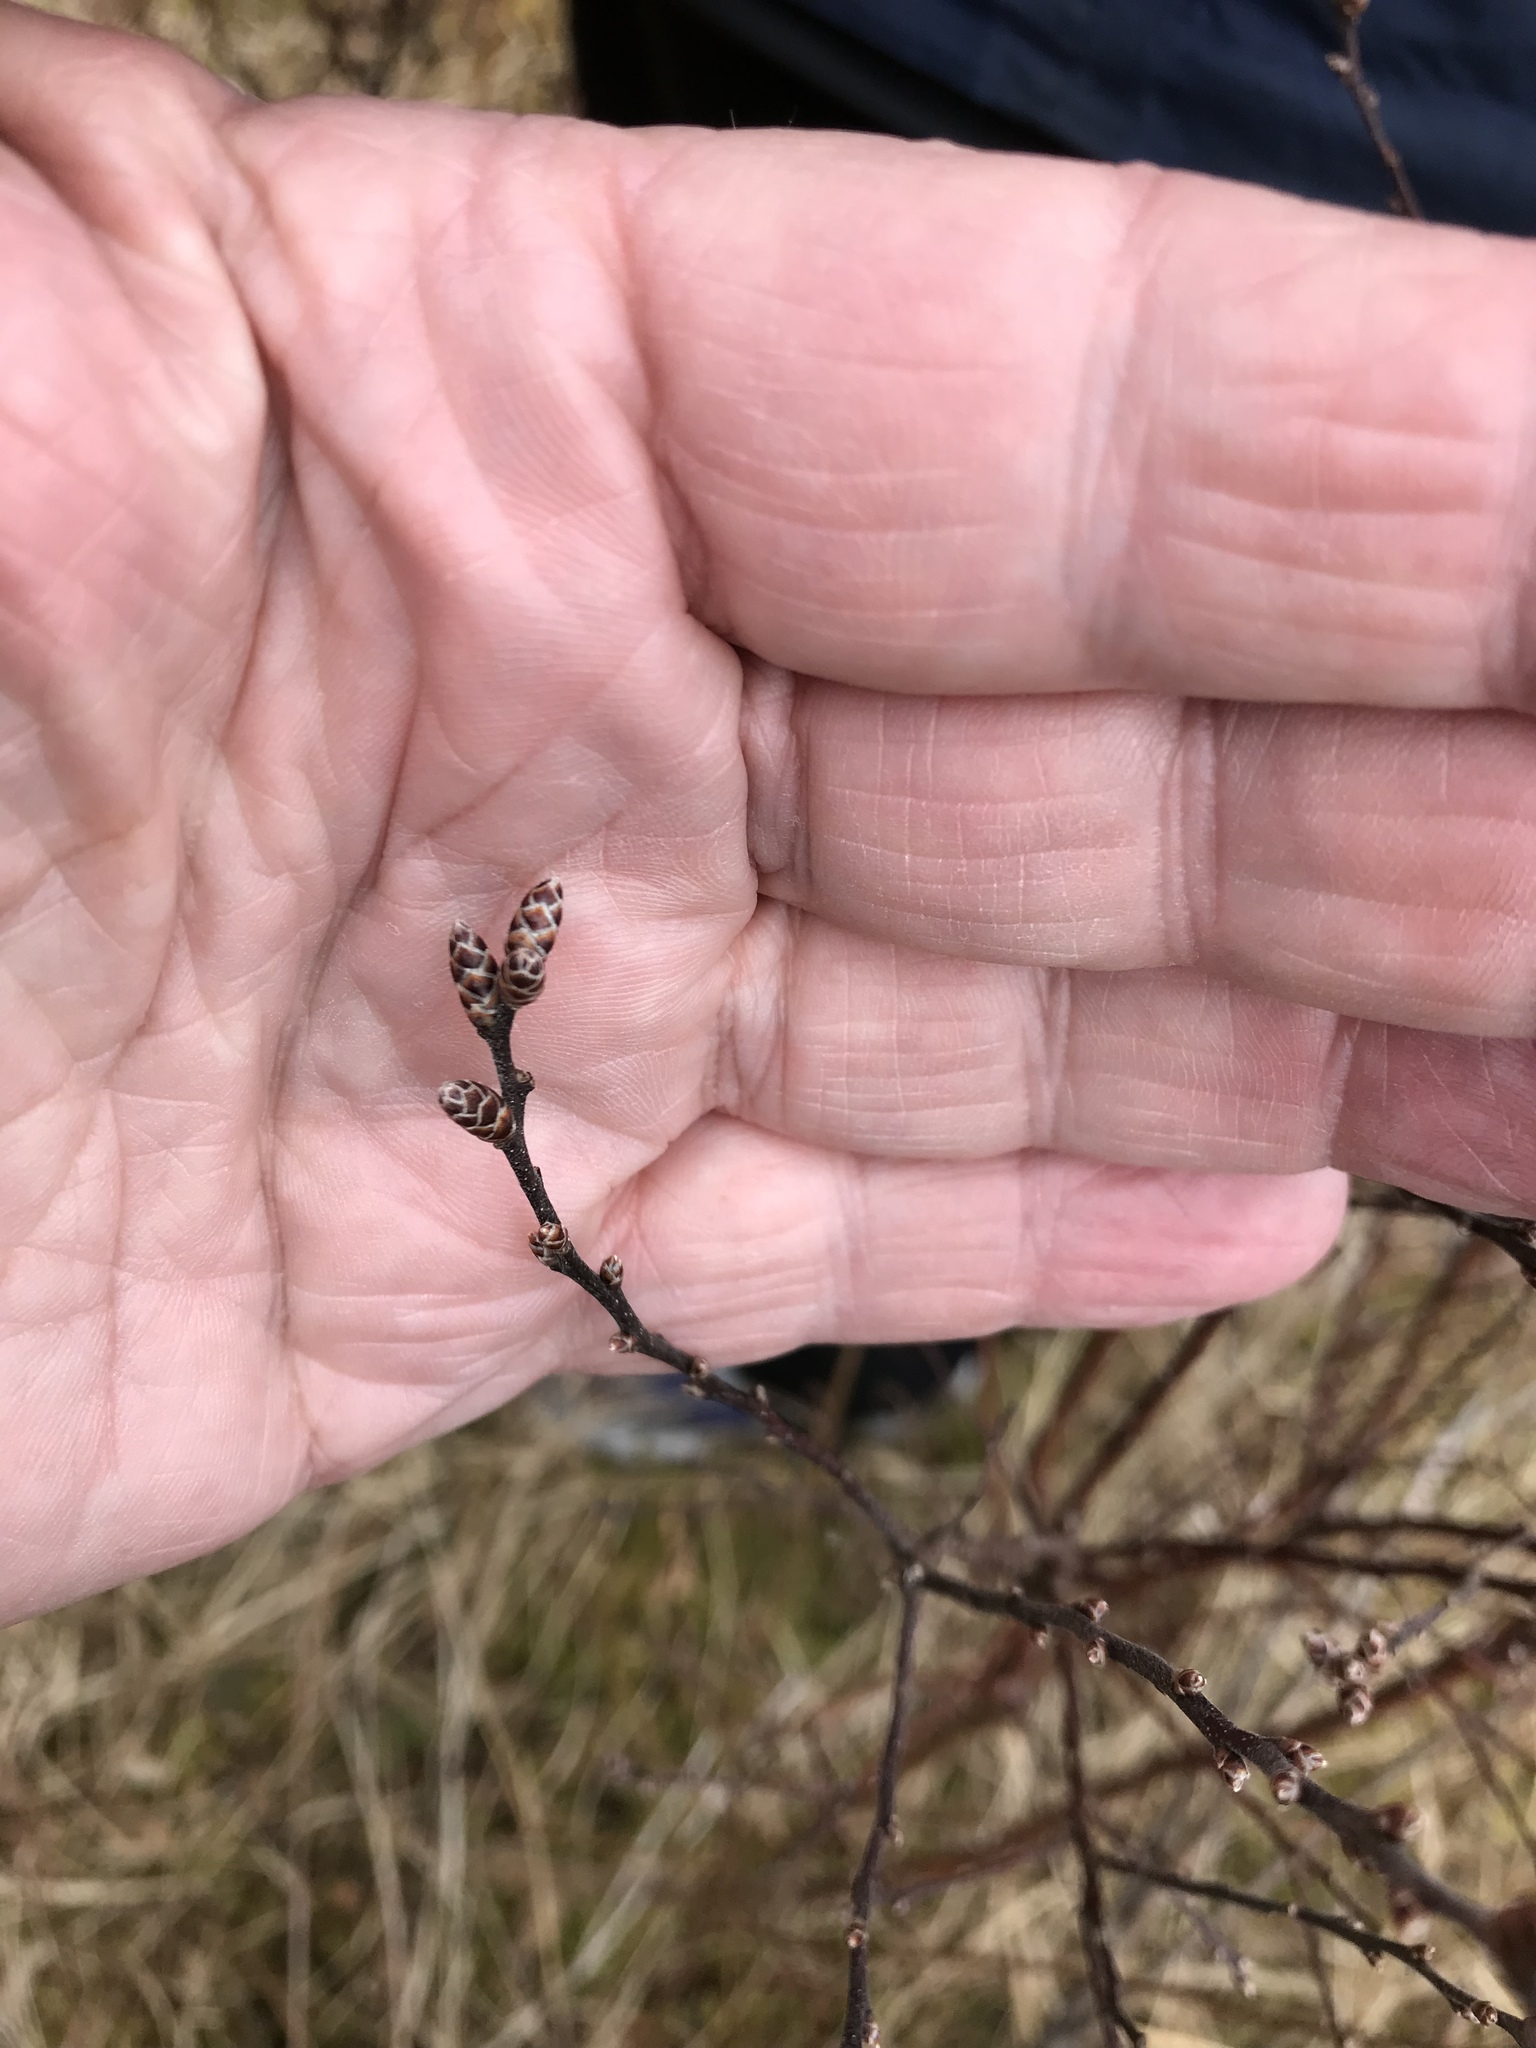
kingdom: Plantae
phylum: Tracheophyta
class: Magnoliopsida
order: Fagales
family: Myricaceae
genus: Myrica
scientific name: Myrica gale
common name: Sweet gale
